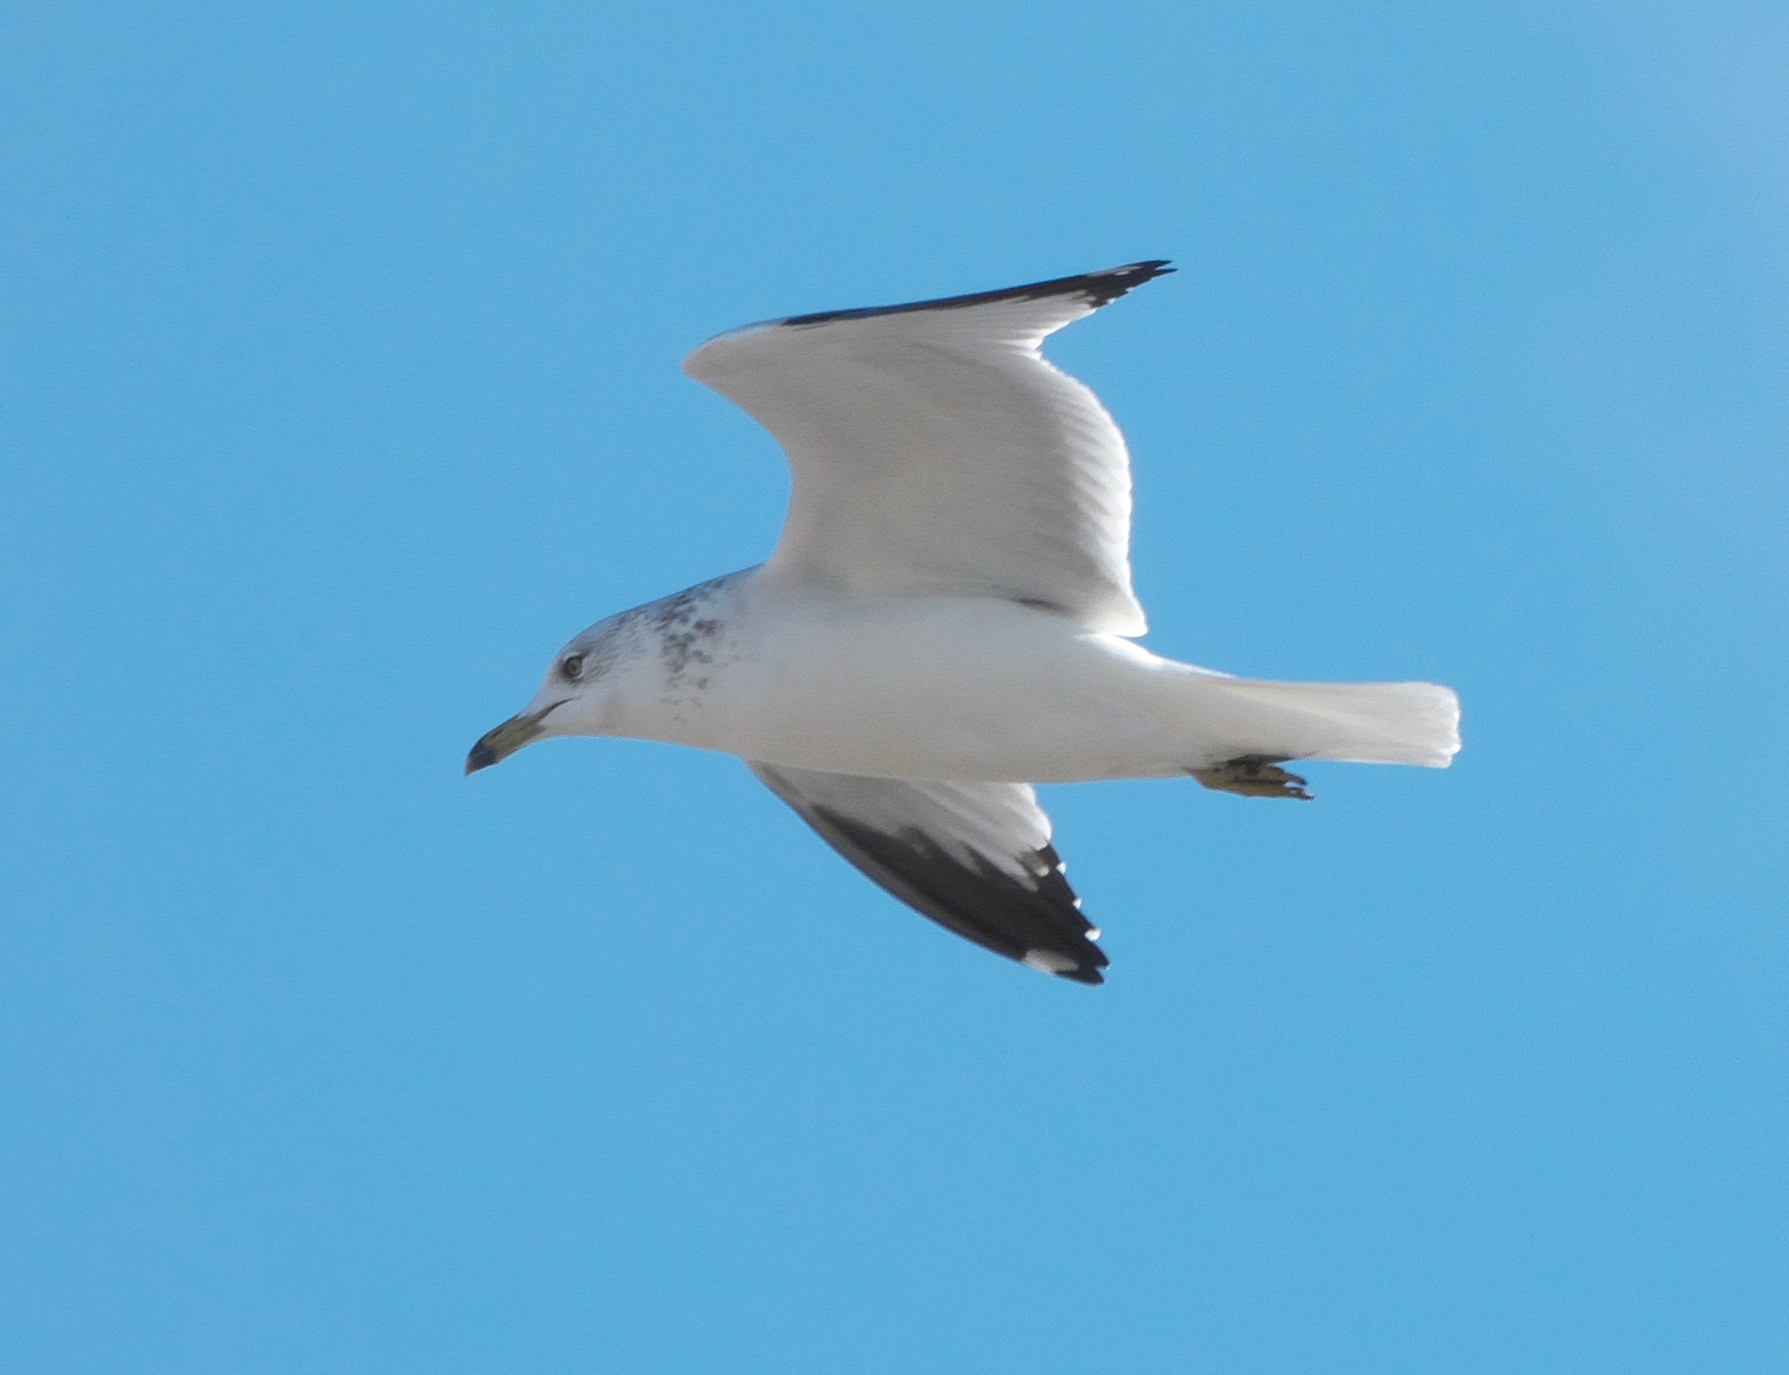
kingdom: Animalia
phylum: Chordata
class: Aves
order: Charadriiformes
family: Laridae
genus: Larus
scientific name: Larus delawarensis
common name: Ring-billed gull
